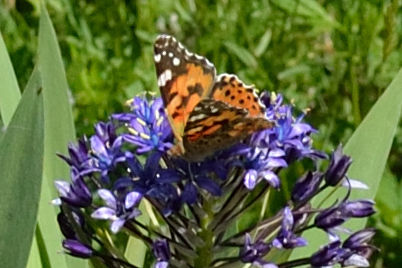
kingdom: Animalia
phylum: Arthropoda
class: Insecta
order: Lepidoptera
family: Nymphalidae
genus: Vanessa
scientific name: Vanessa cardui
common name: Painted lady
